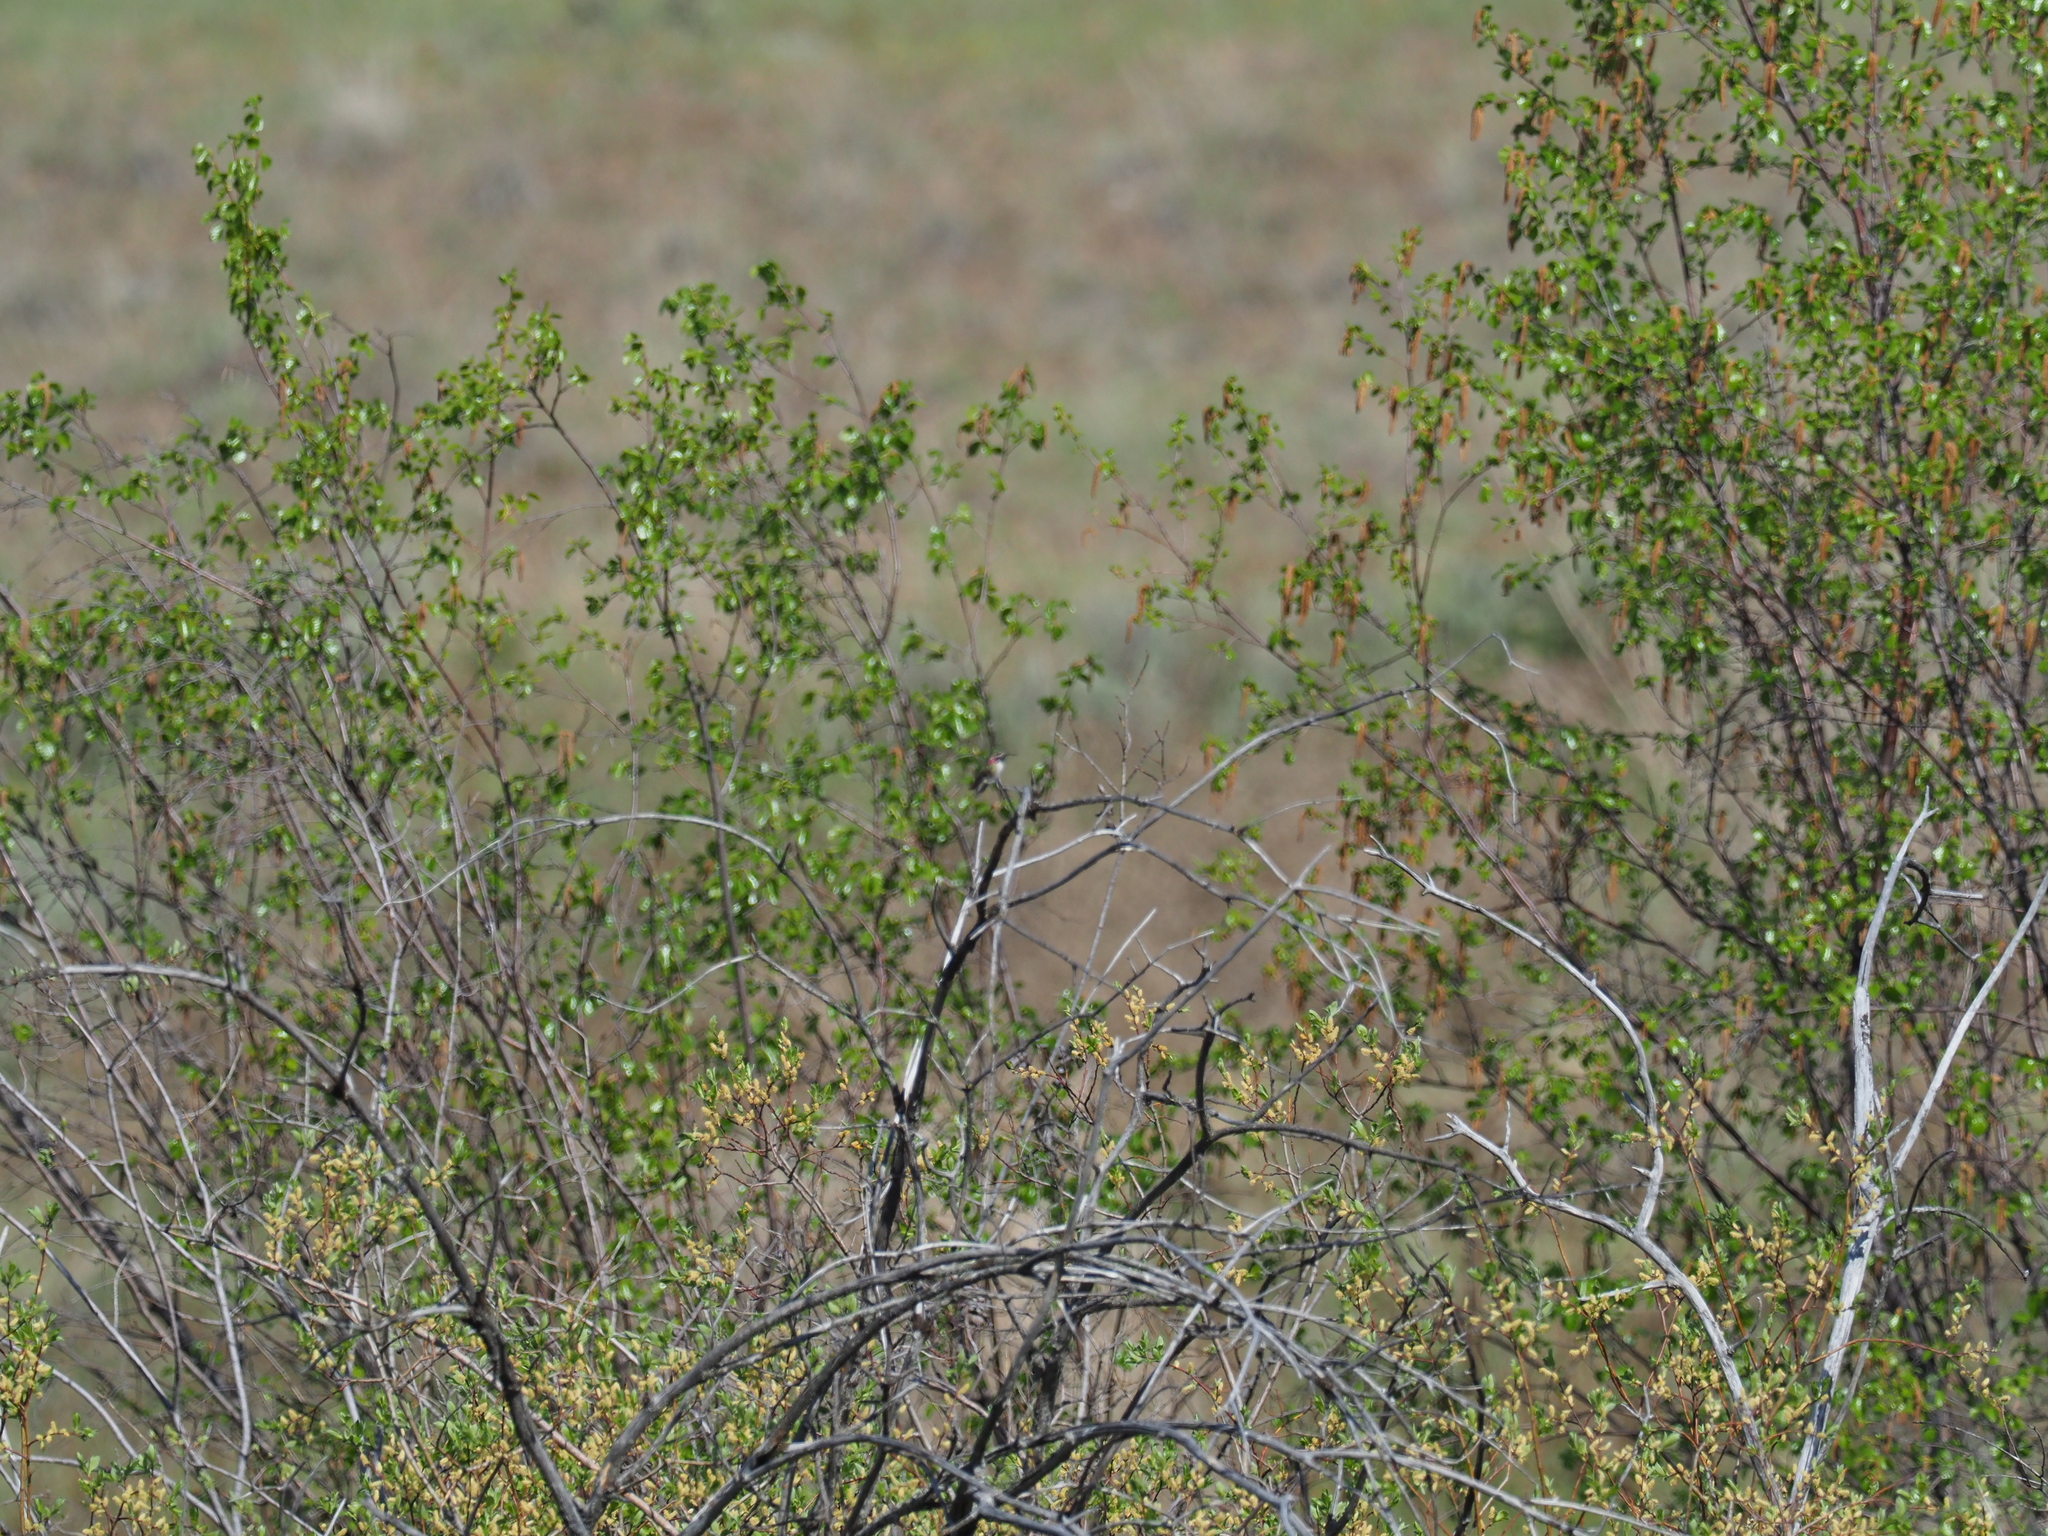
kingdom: Animalia
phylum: Chordata
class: Aves
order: Apodiformes
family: Trochilidae
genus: Selasphorus
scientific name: Selasphorus calliope
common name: Calliope hummingbird
